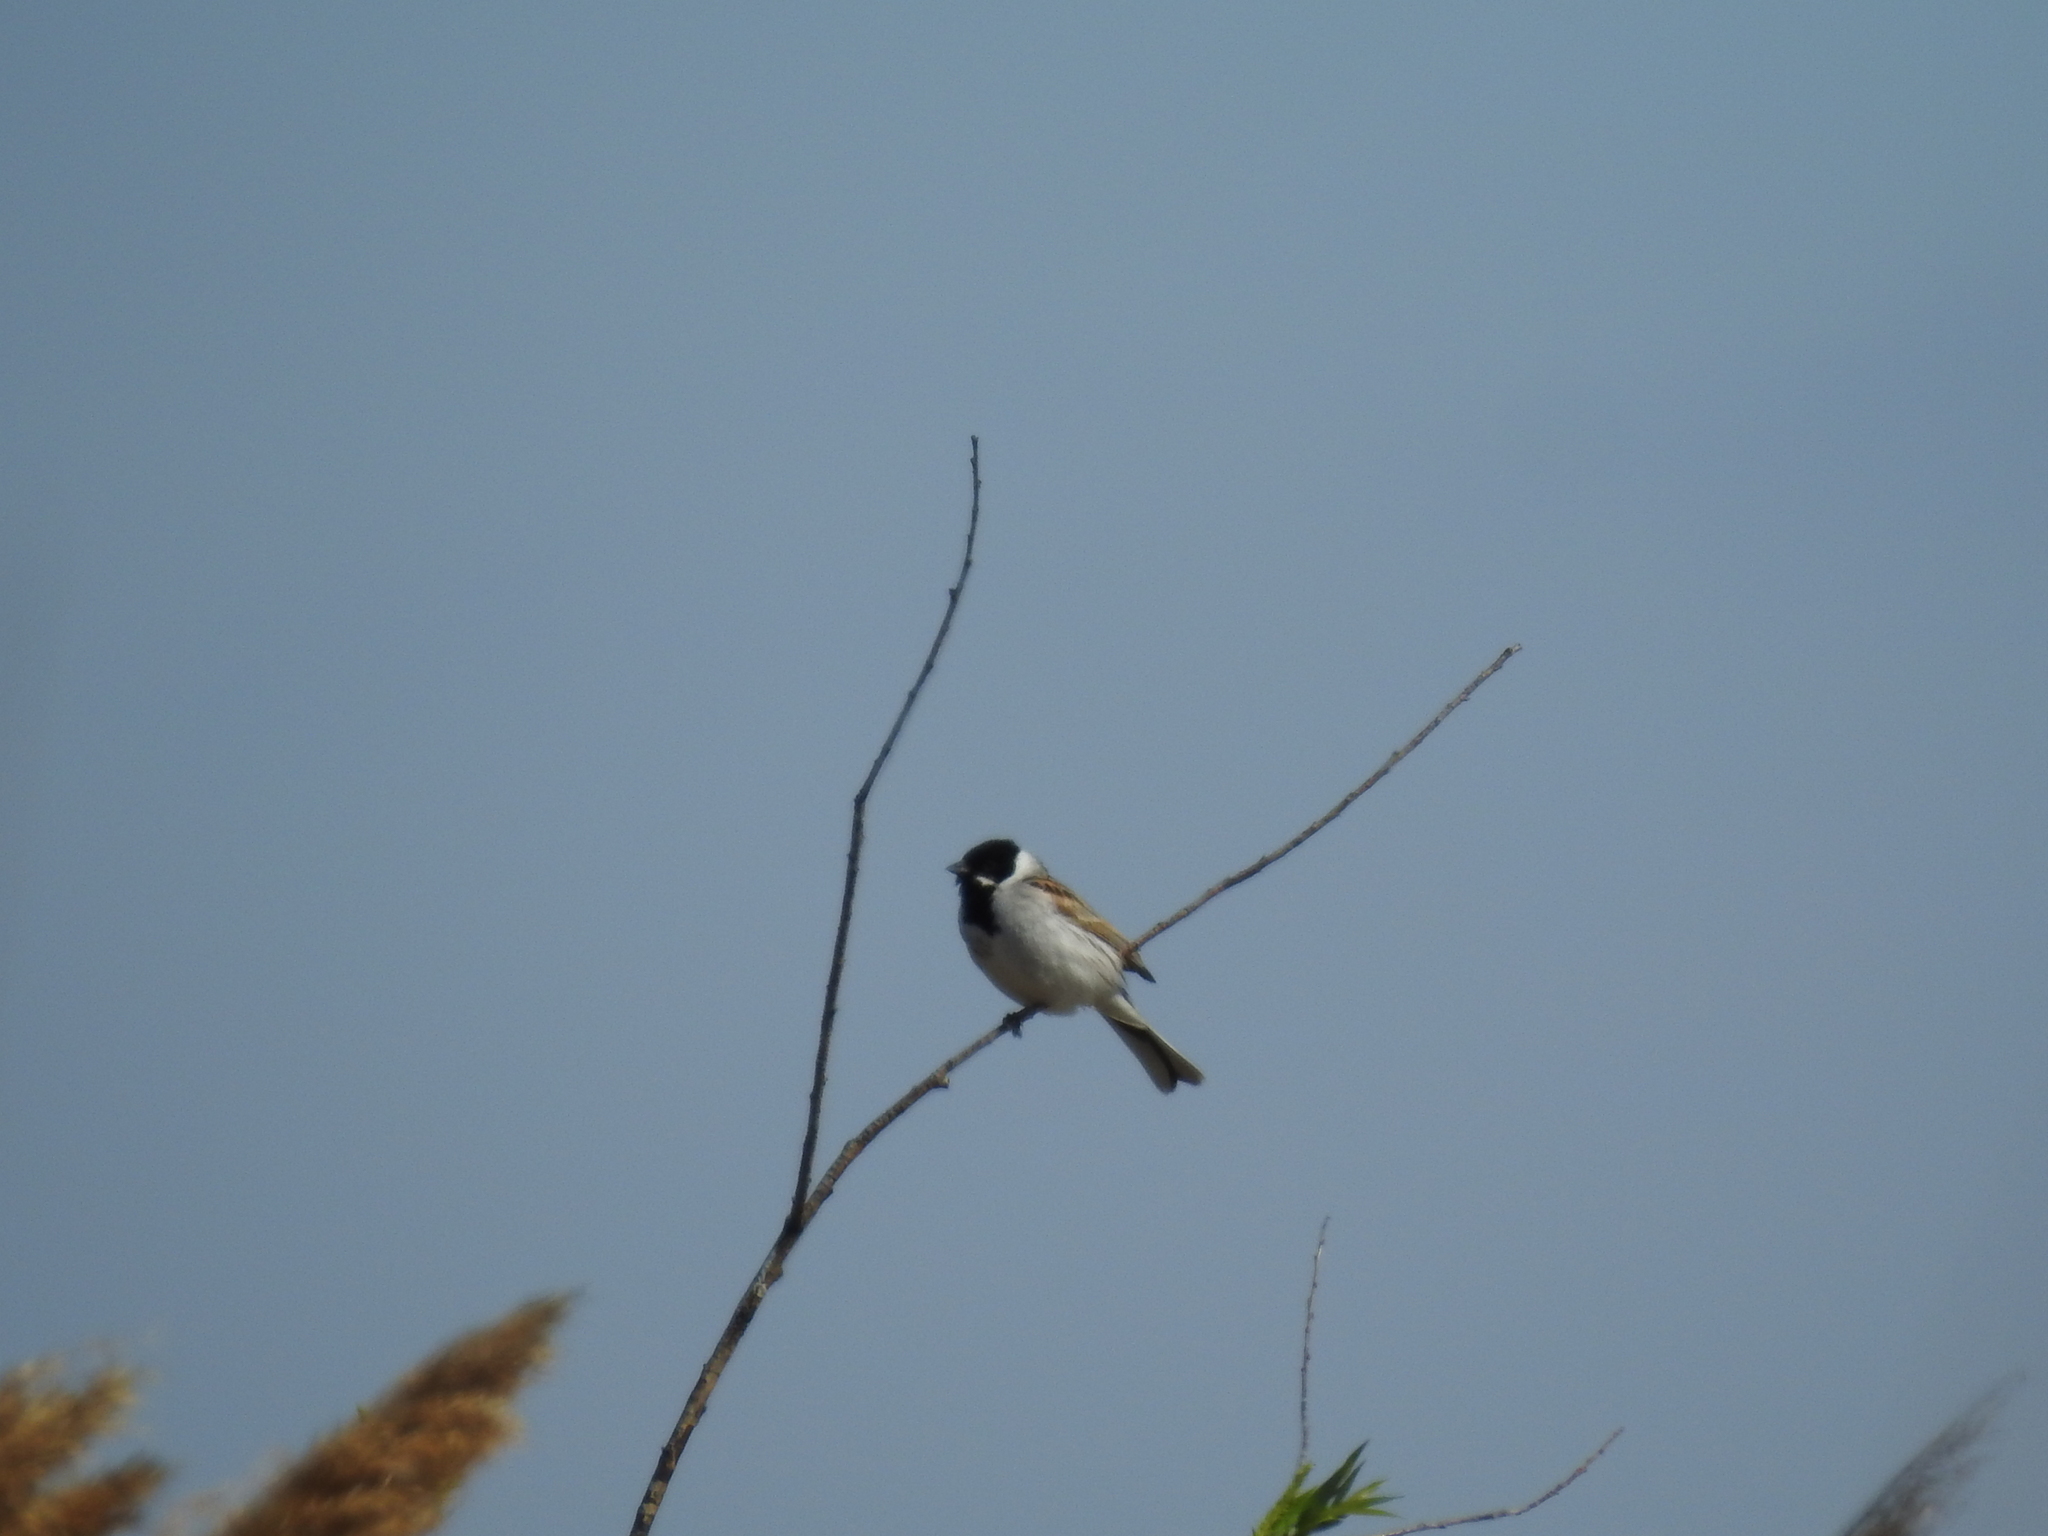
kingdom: Animalia
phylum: Chordata
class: Aves
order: Passeriformes
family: Emberizidae
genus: Emberiza
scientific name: Emberiza schoeniclus
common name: Reed bunting
